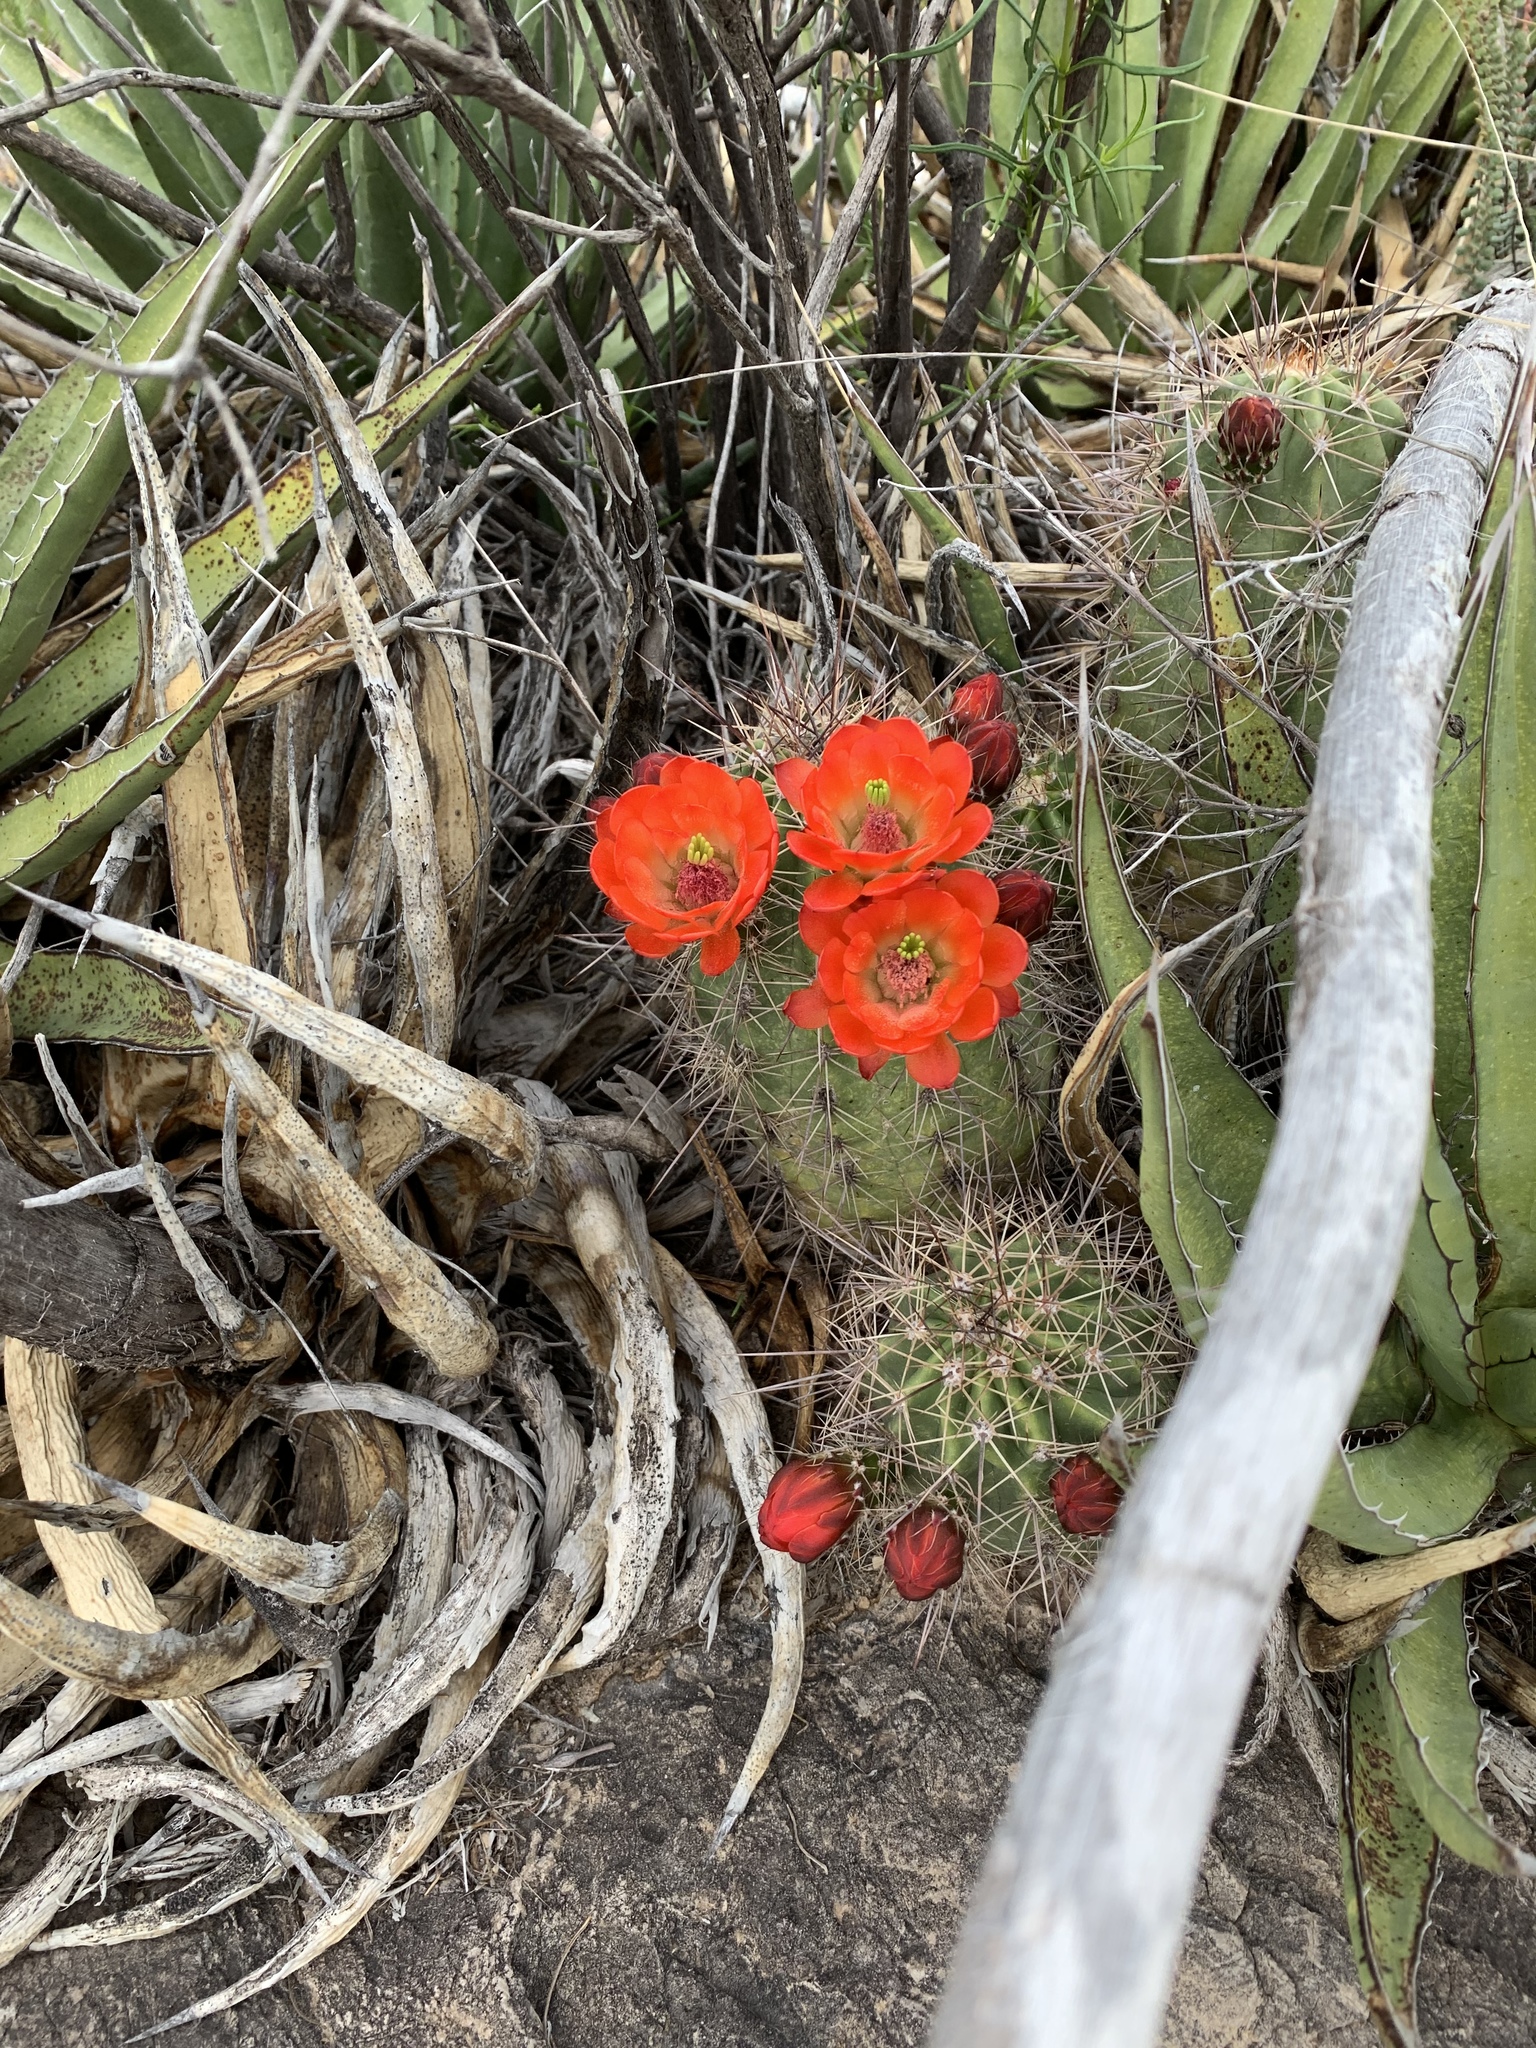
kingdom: Plantae
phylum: Tracheophyta
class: Magnoliopsida
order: Caryophyllales
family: Cactaceae
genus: Echinocereus
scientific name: Echinocereus coccineus
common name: Scarlet hedgehog cactus
